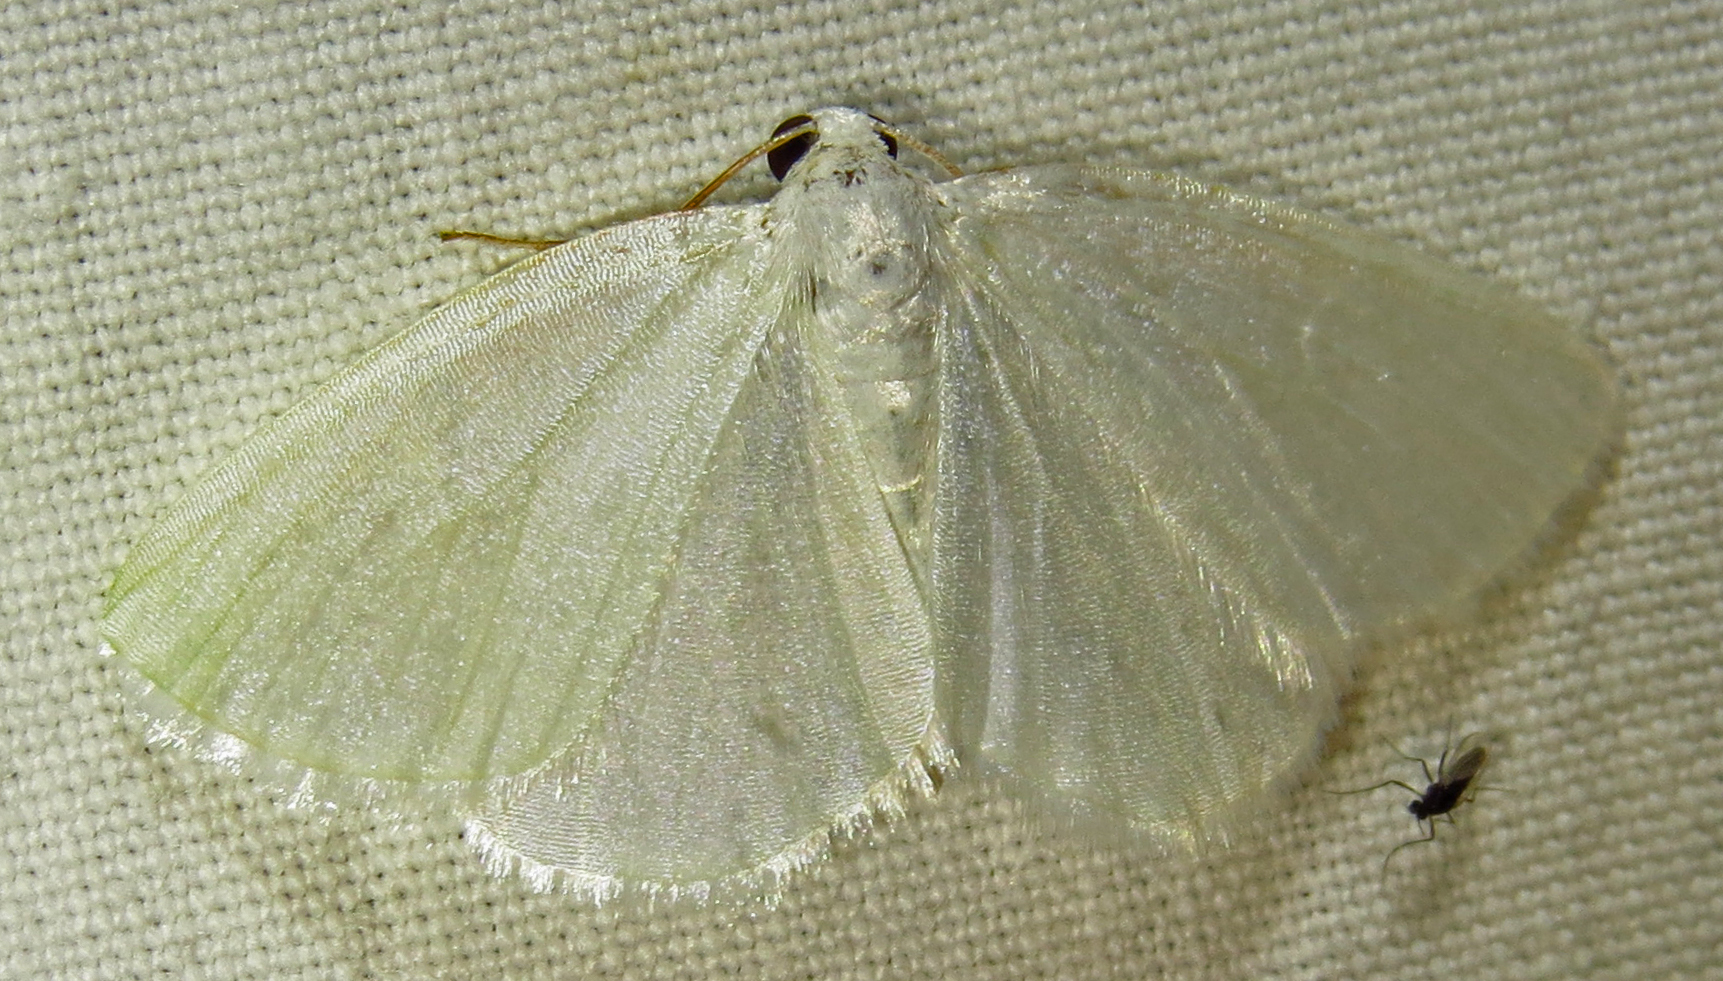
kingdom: Animalia
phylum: Arthropoda
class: Insecta
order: Lepidoptera
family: Geometridae
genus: Lomographa
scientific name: Lomographa vestaliata
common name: White spring moth
